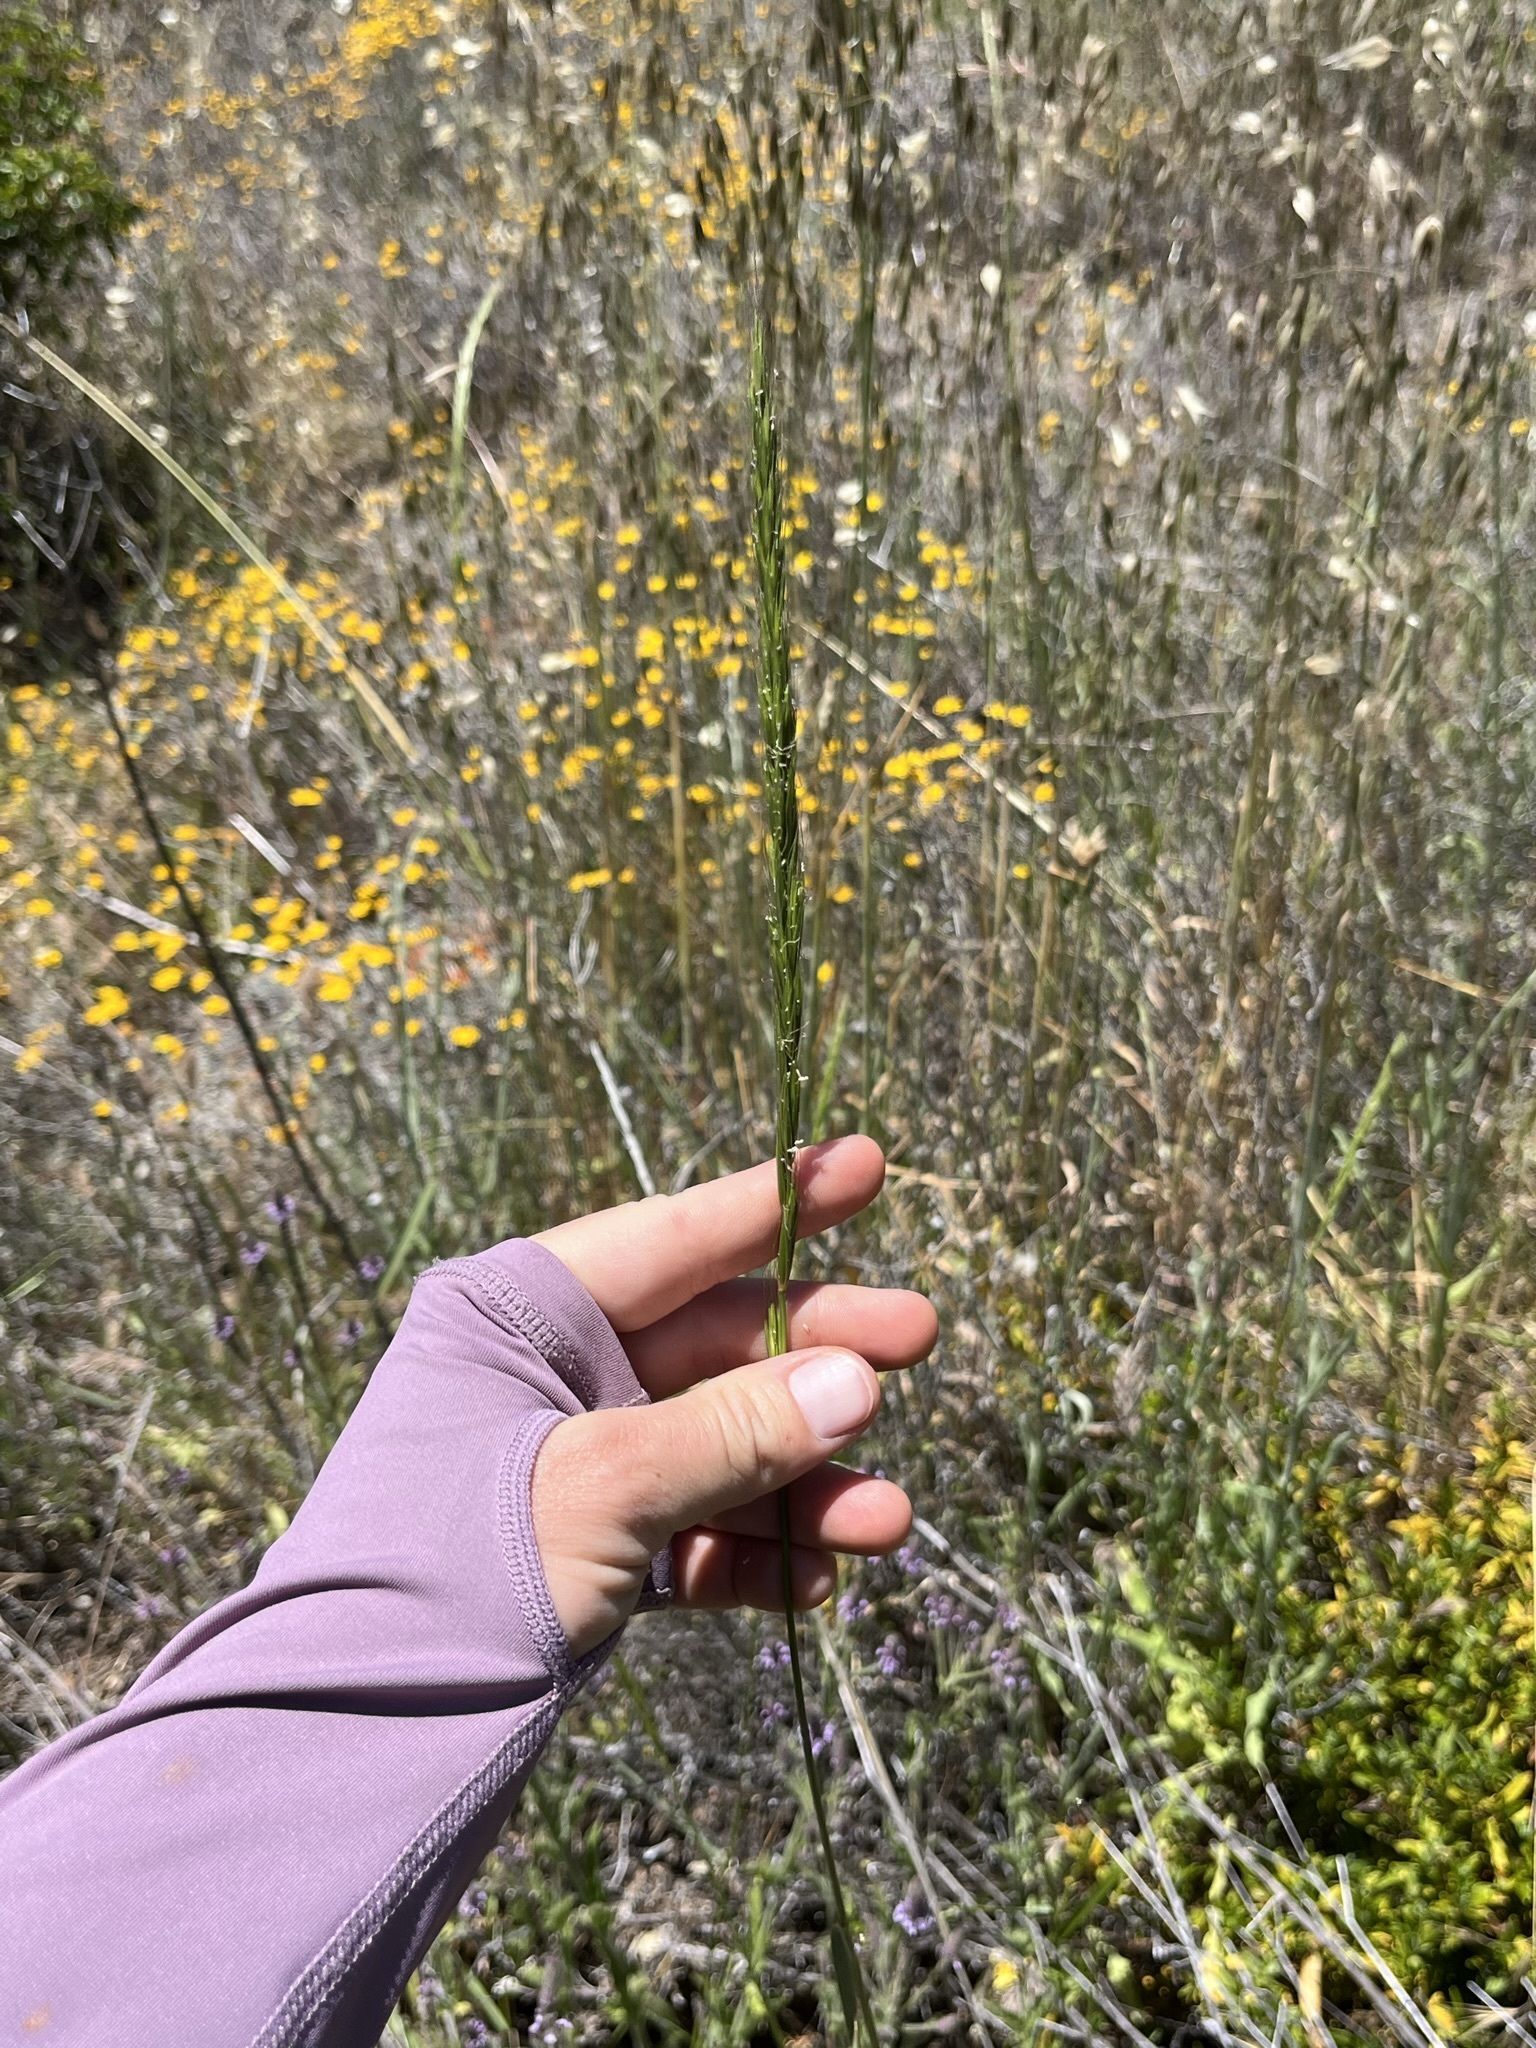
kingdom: Plantae
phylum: Tracheophyta
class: Liliopsida
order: Poales
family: Poaceae
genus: Elymus
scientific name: Elymus glaucus
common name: Blue wild rye
